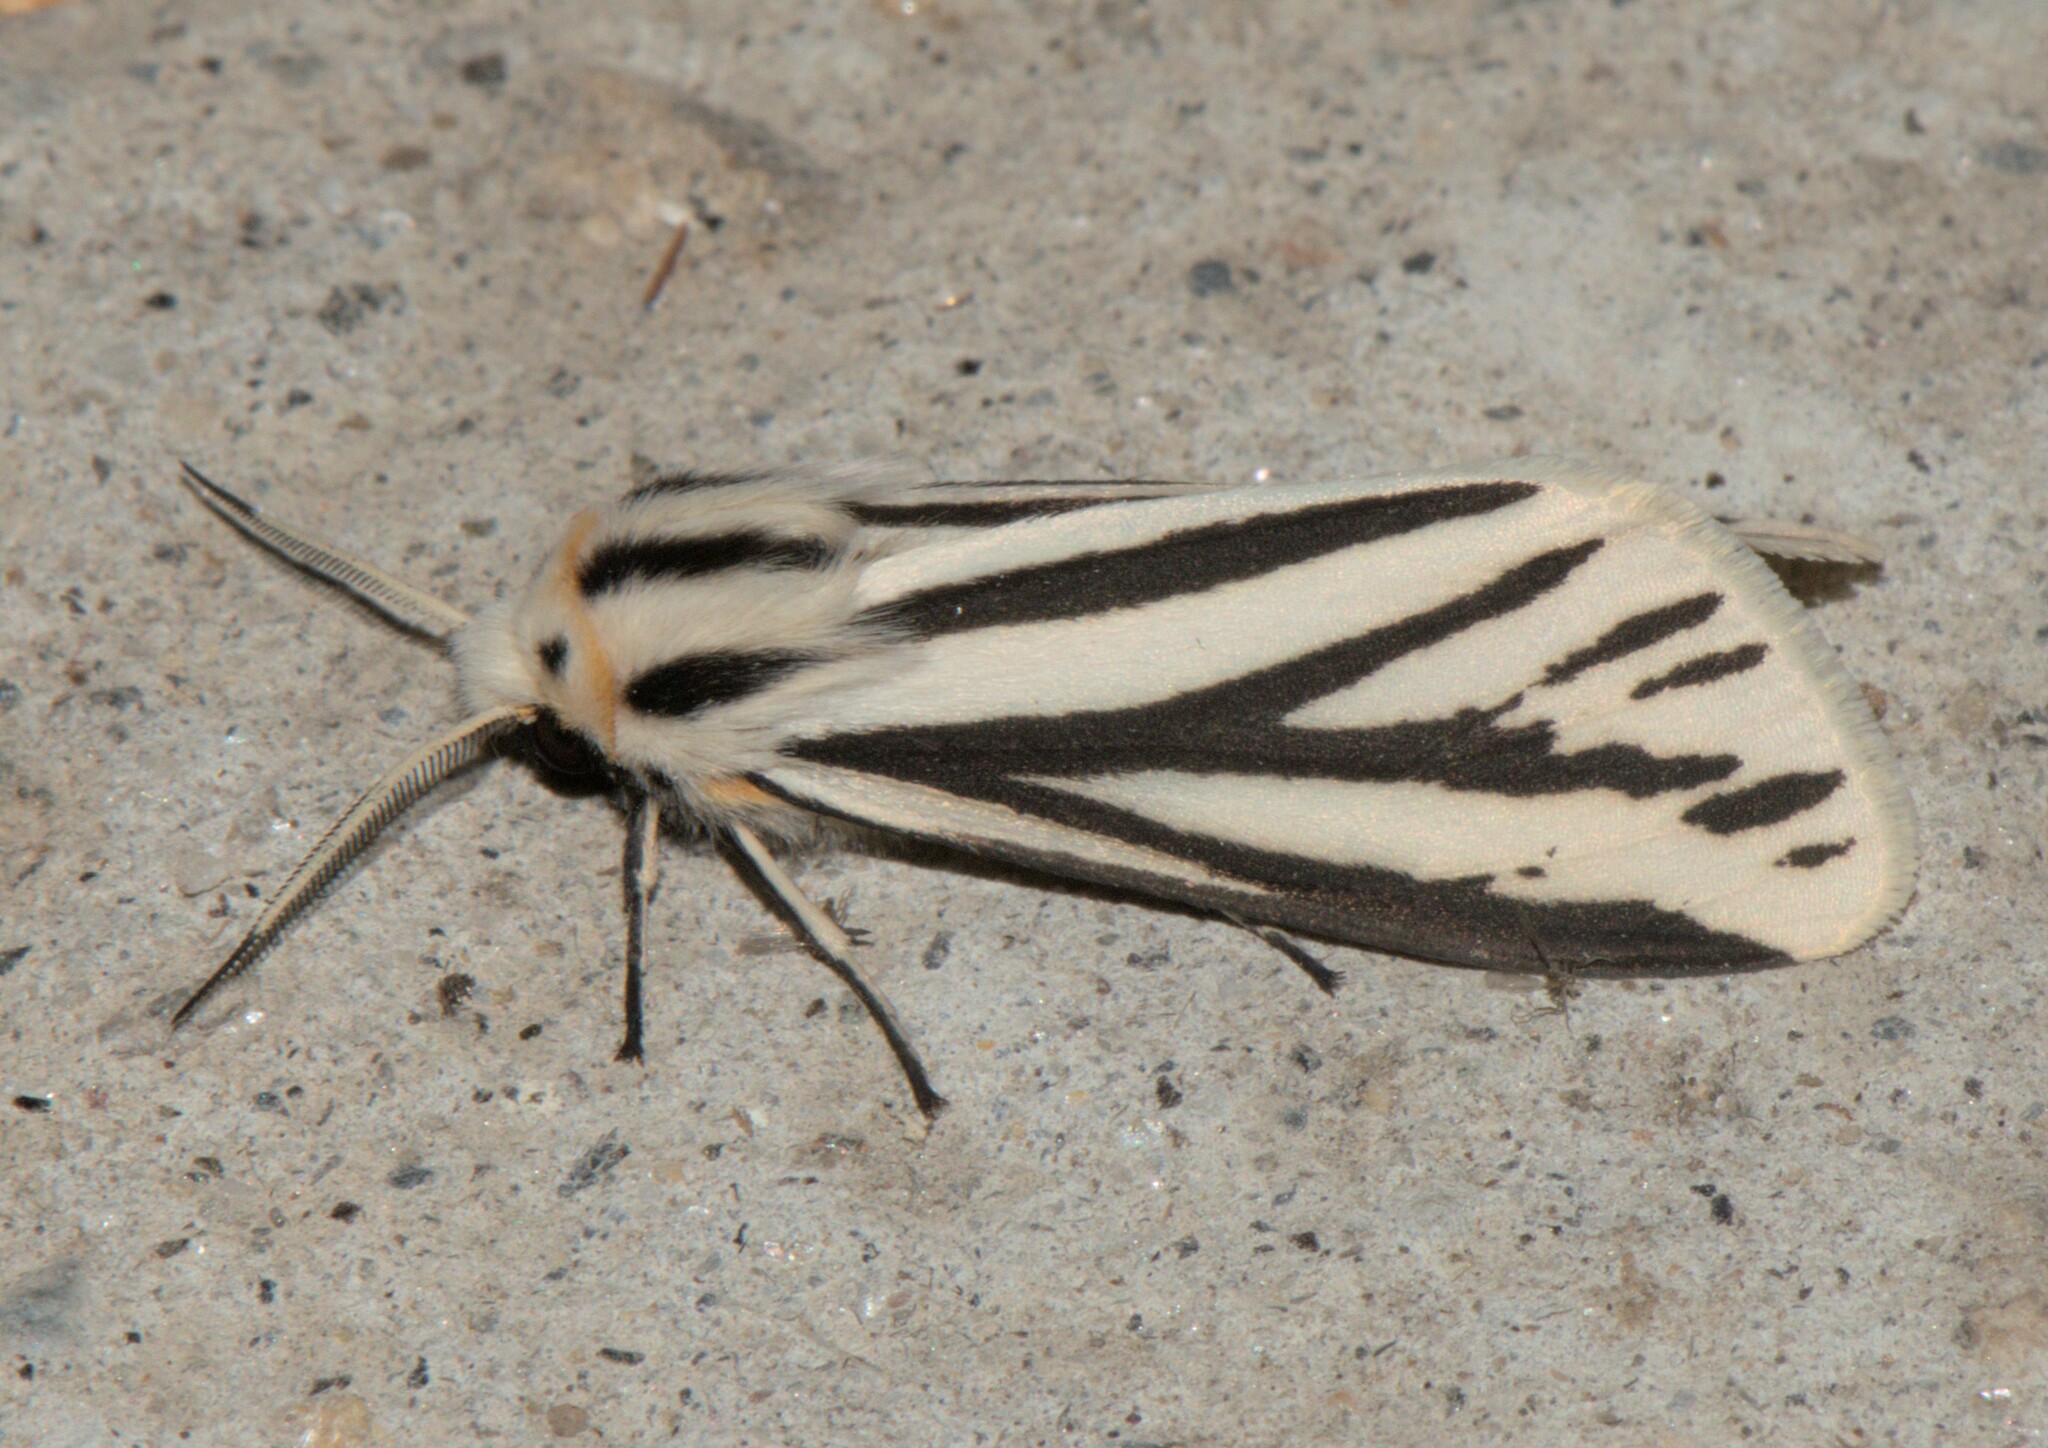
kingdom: Animalia
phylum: Arthropoda
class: Insecta
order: Lepidoptera
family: Erebidae
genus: Cladarctia
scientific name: Cladarctia quadriramosa
